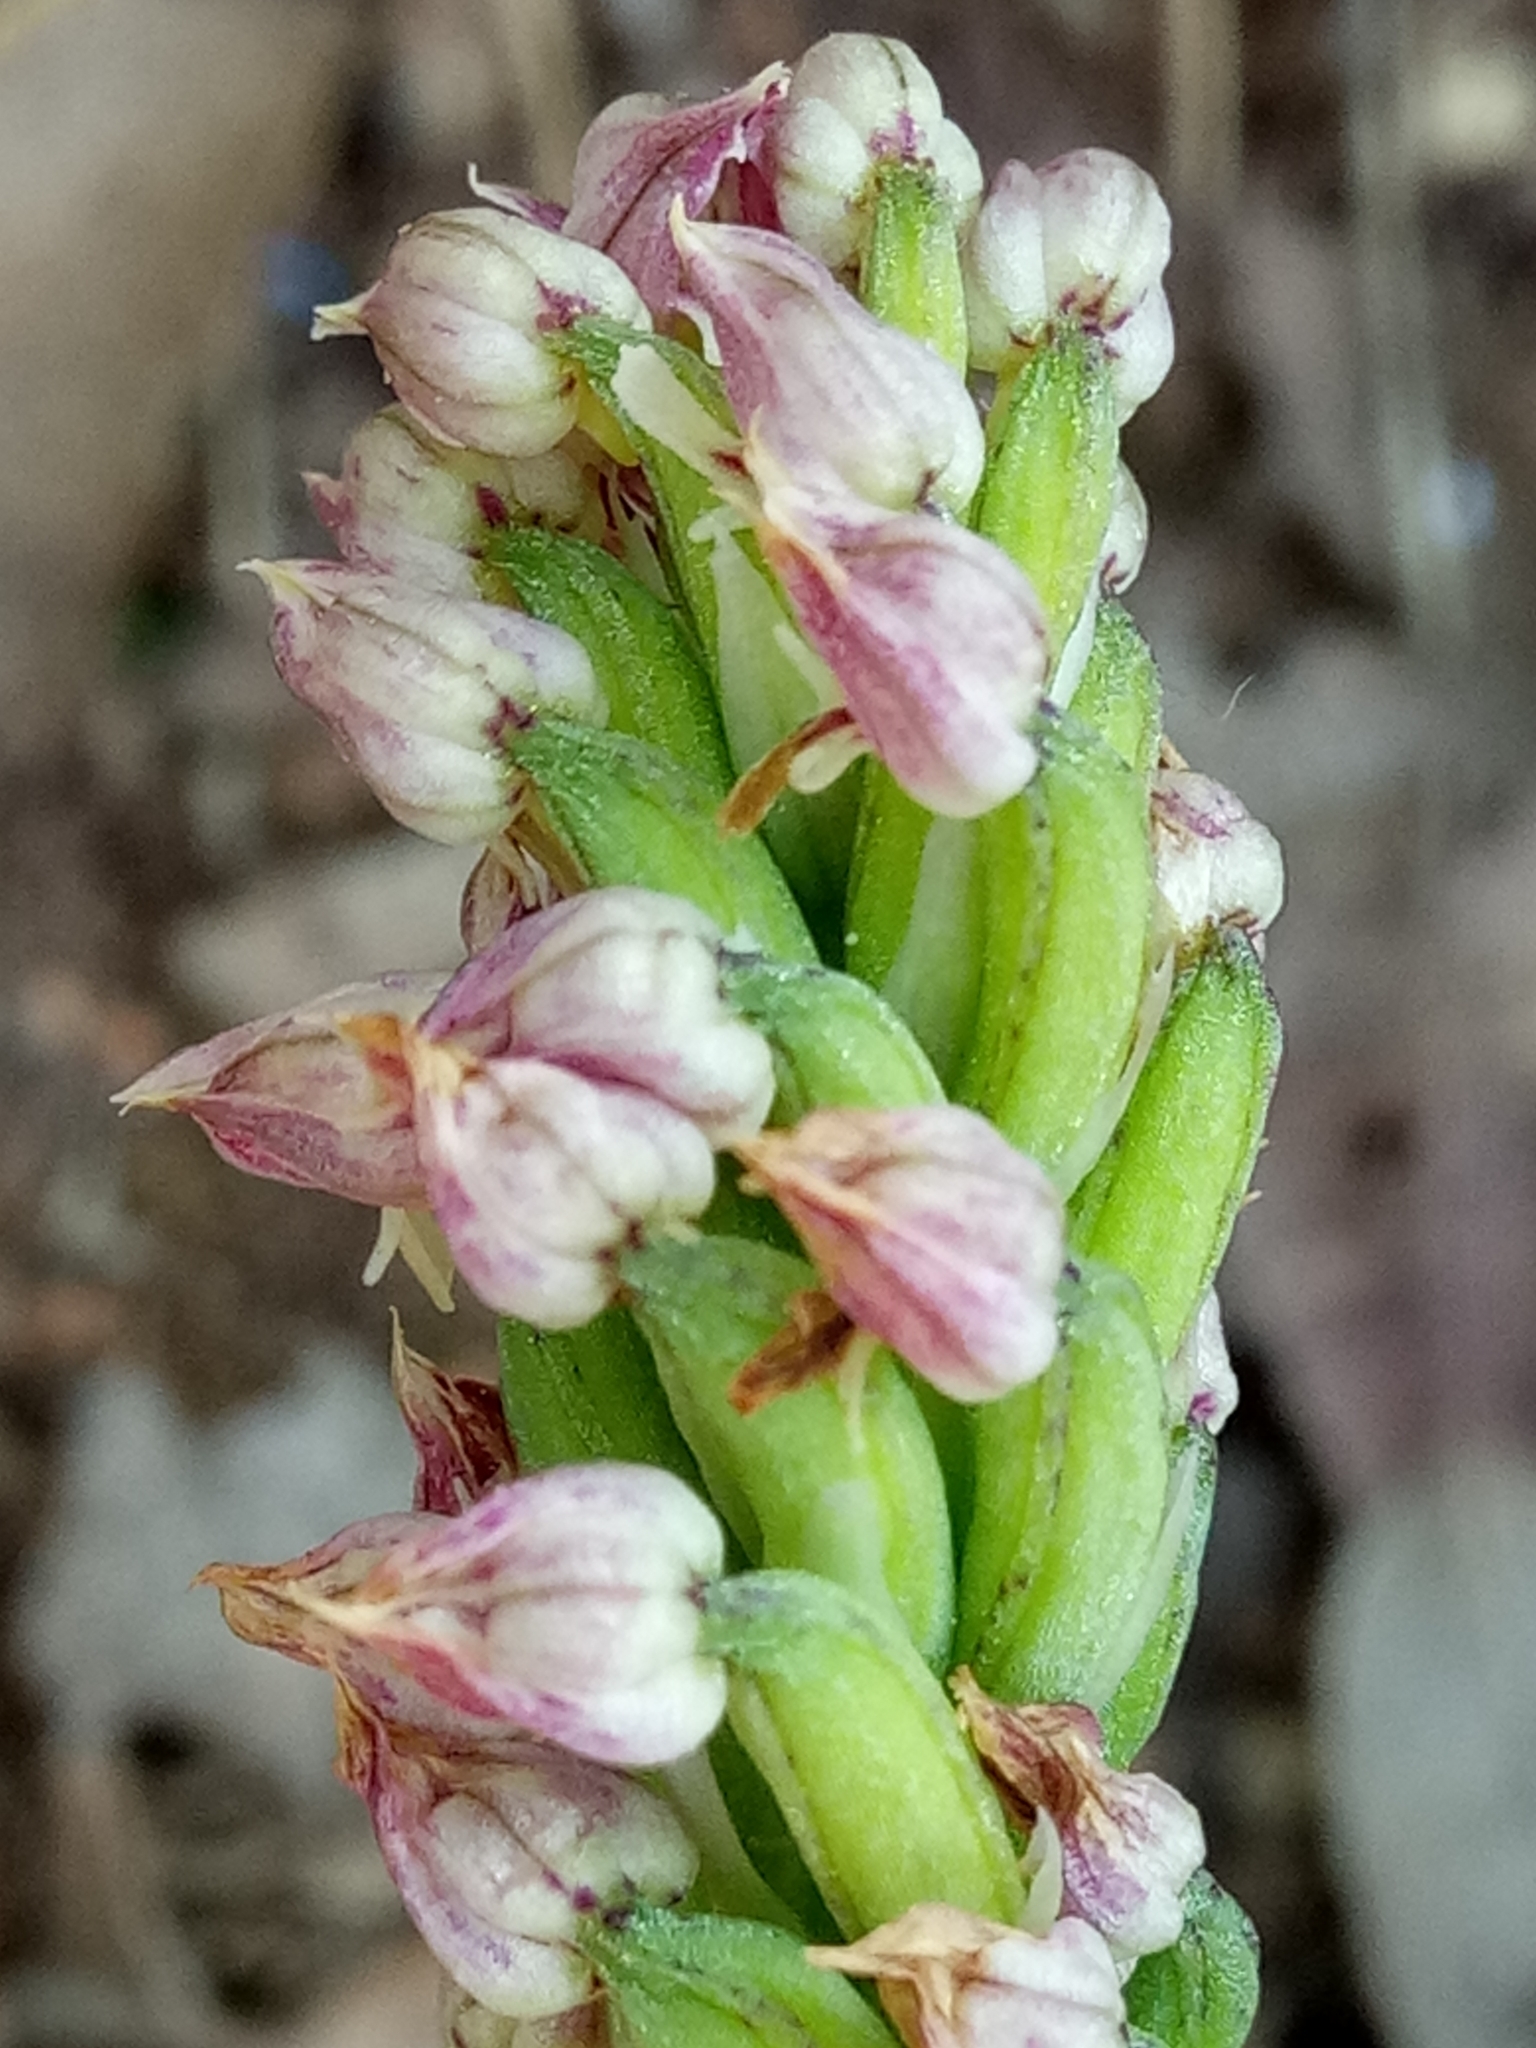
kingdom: Plantae
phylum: Tracheophyta
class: Liliopsida
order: Asparagales
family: Orchidaceae
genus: Neotinea
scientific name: Neotinea maculata
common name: Dense-flowered orchid
